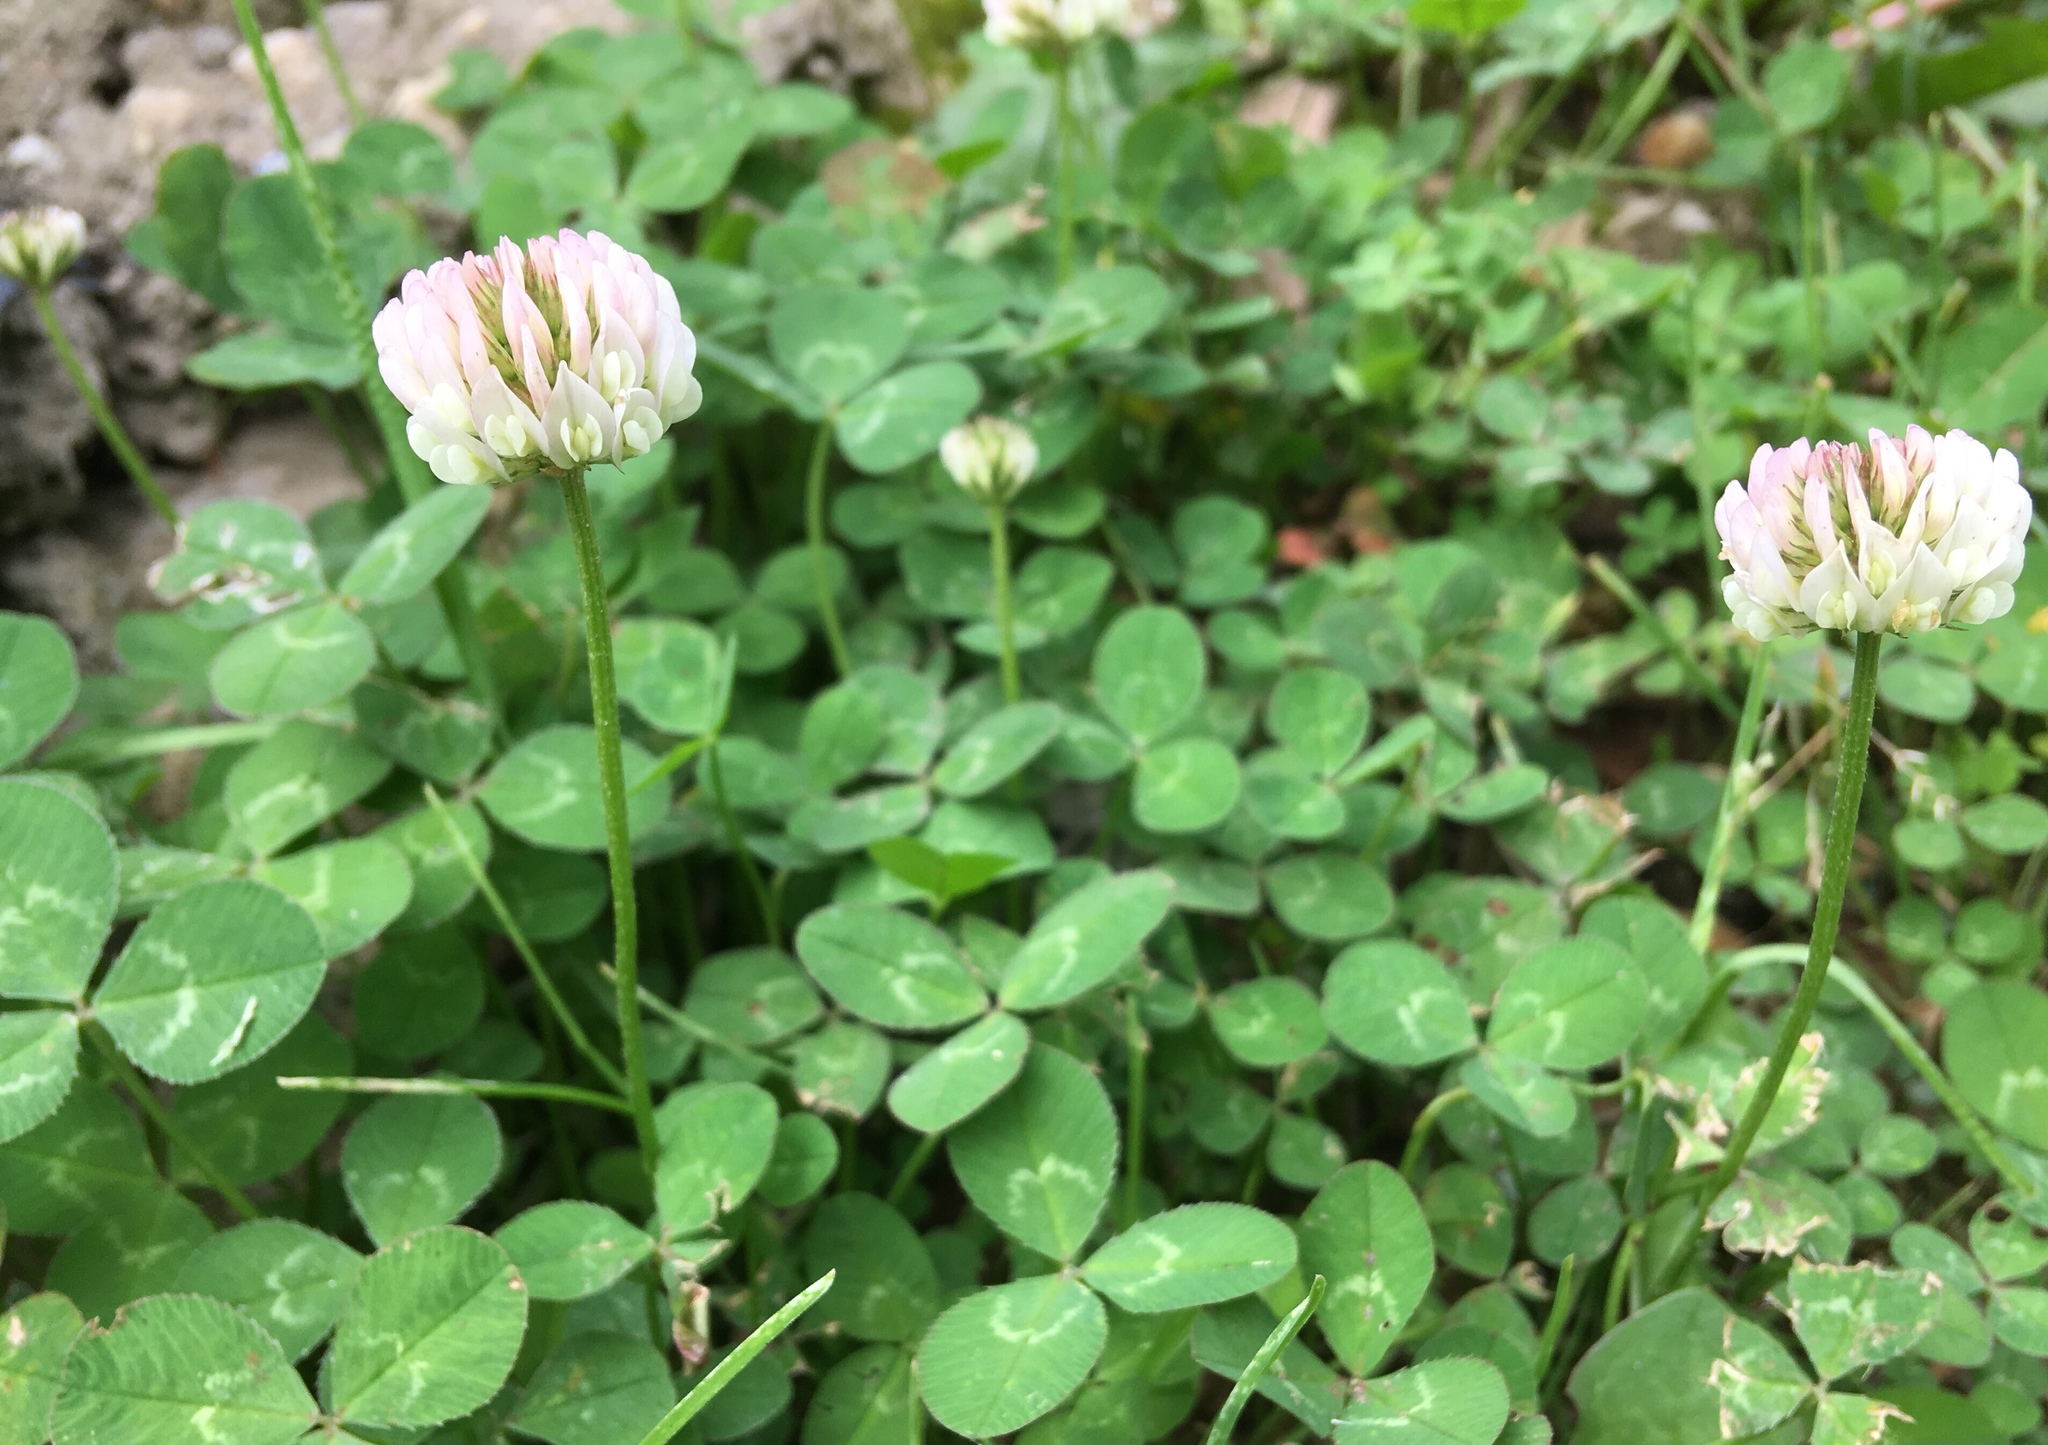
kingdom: Plantae
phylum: Tracheophyta
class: Magnoliopsida
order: Fabales
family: Fabaceae
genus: Trifolium
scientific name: Trifolium repens
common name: White clover
